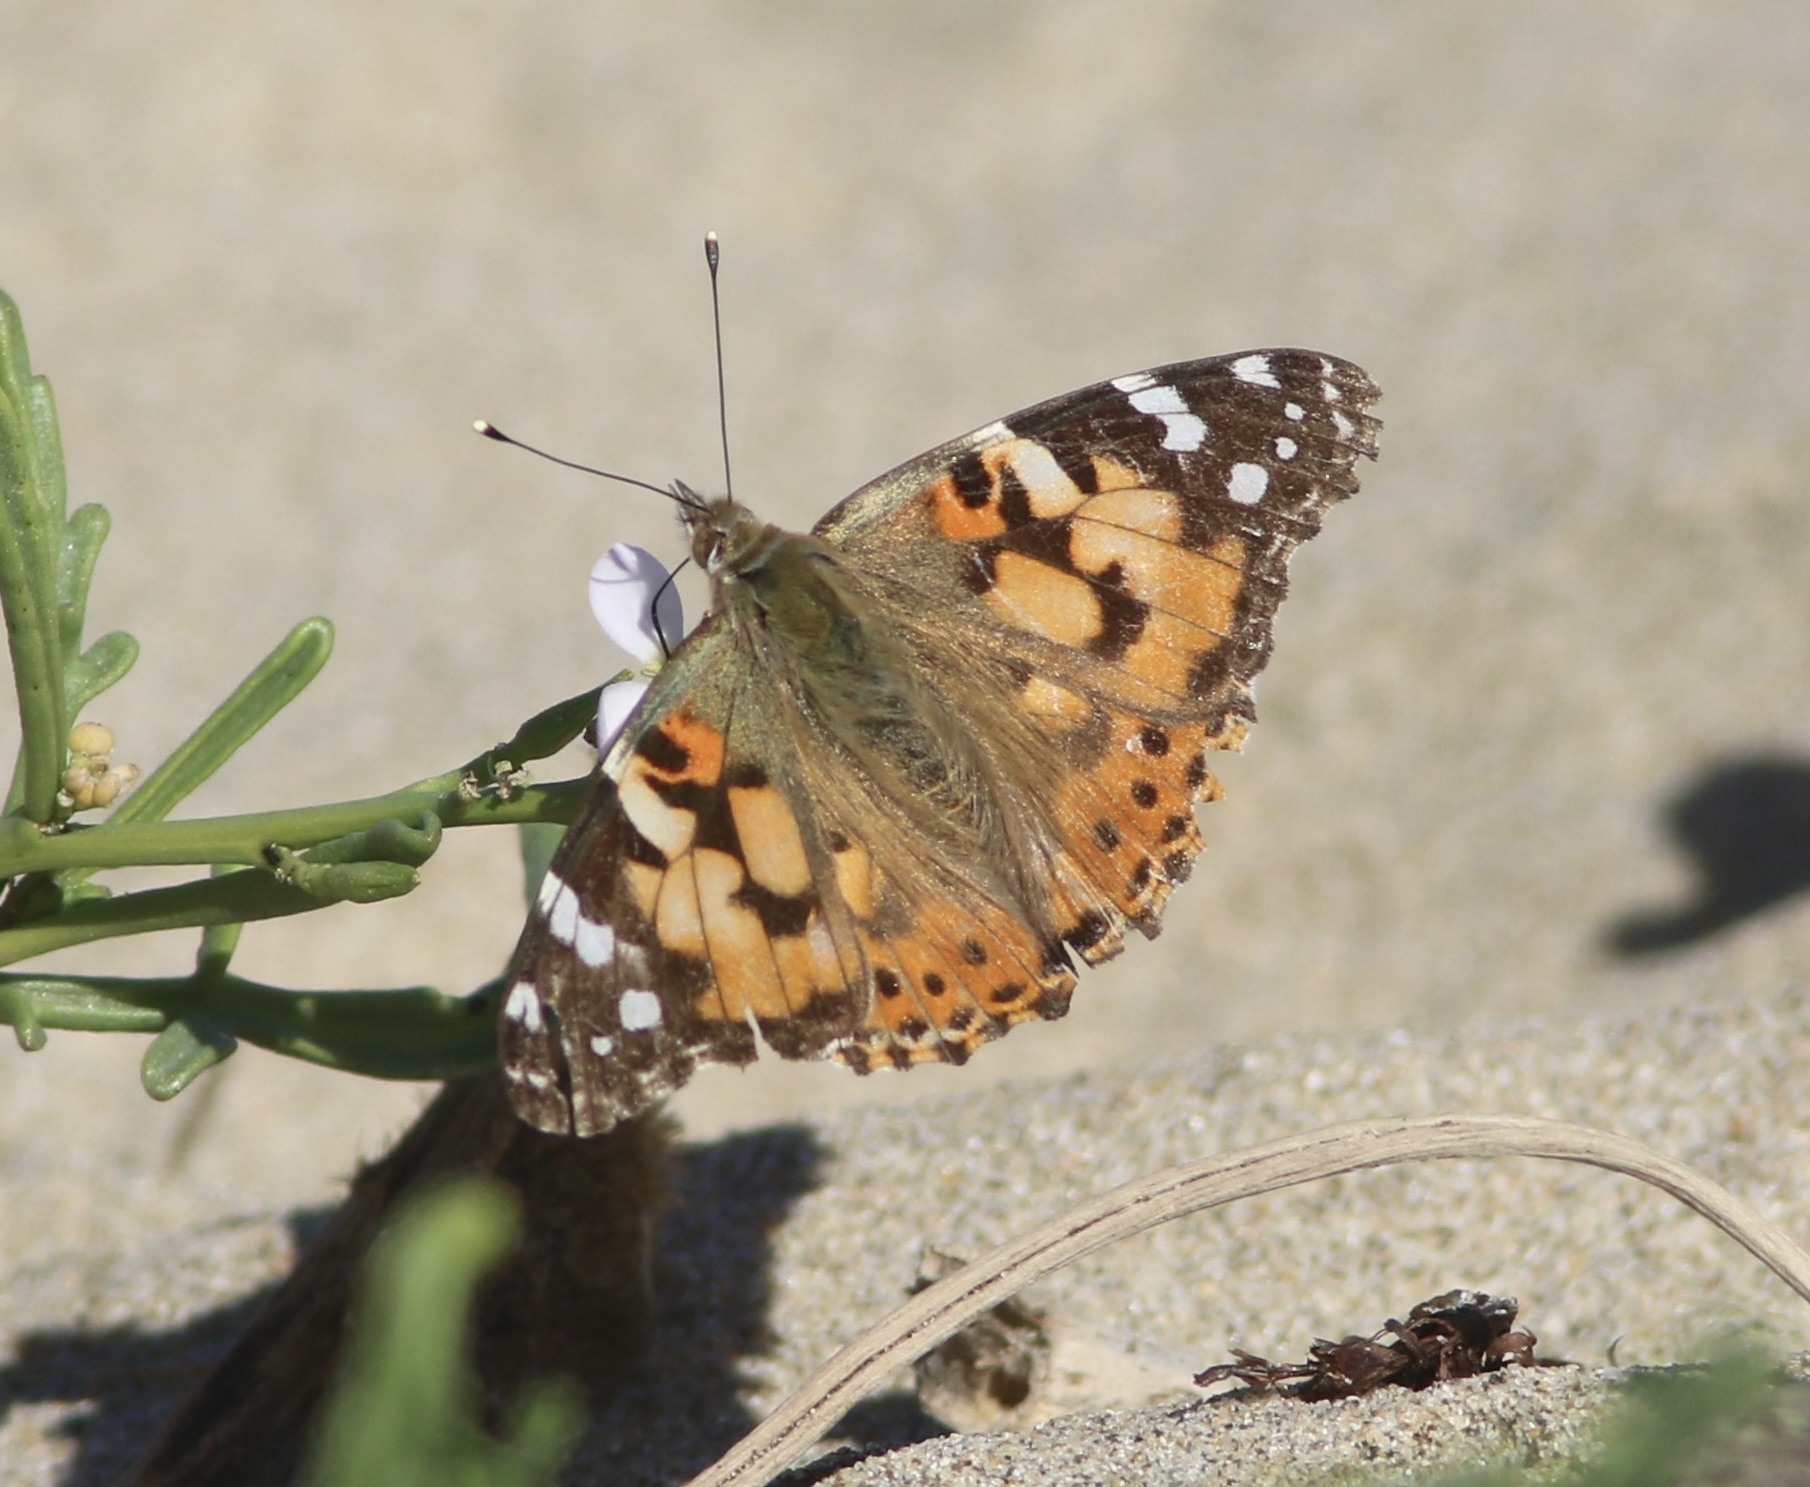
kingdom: Animalia
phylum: Arthropoda
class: Insecta
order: Lepidoptera
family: Nymphalidae
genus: Vanessa
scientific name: Vanessa cardui
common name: Painted lady
